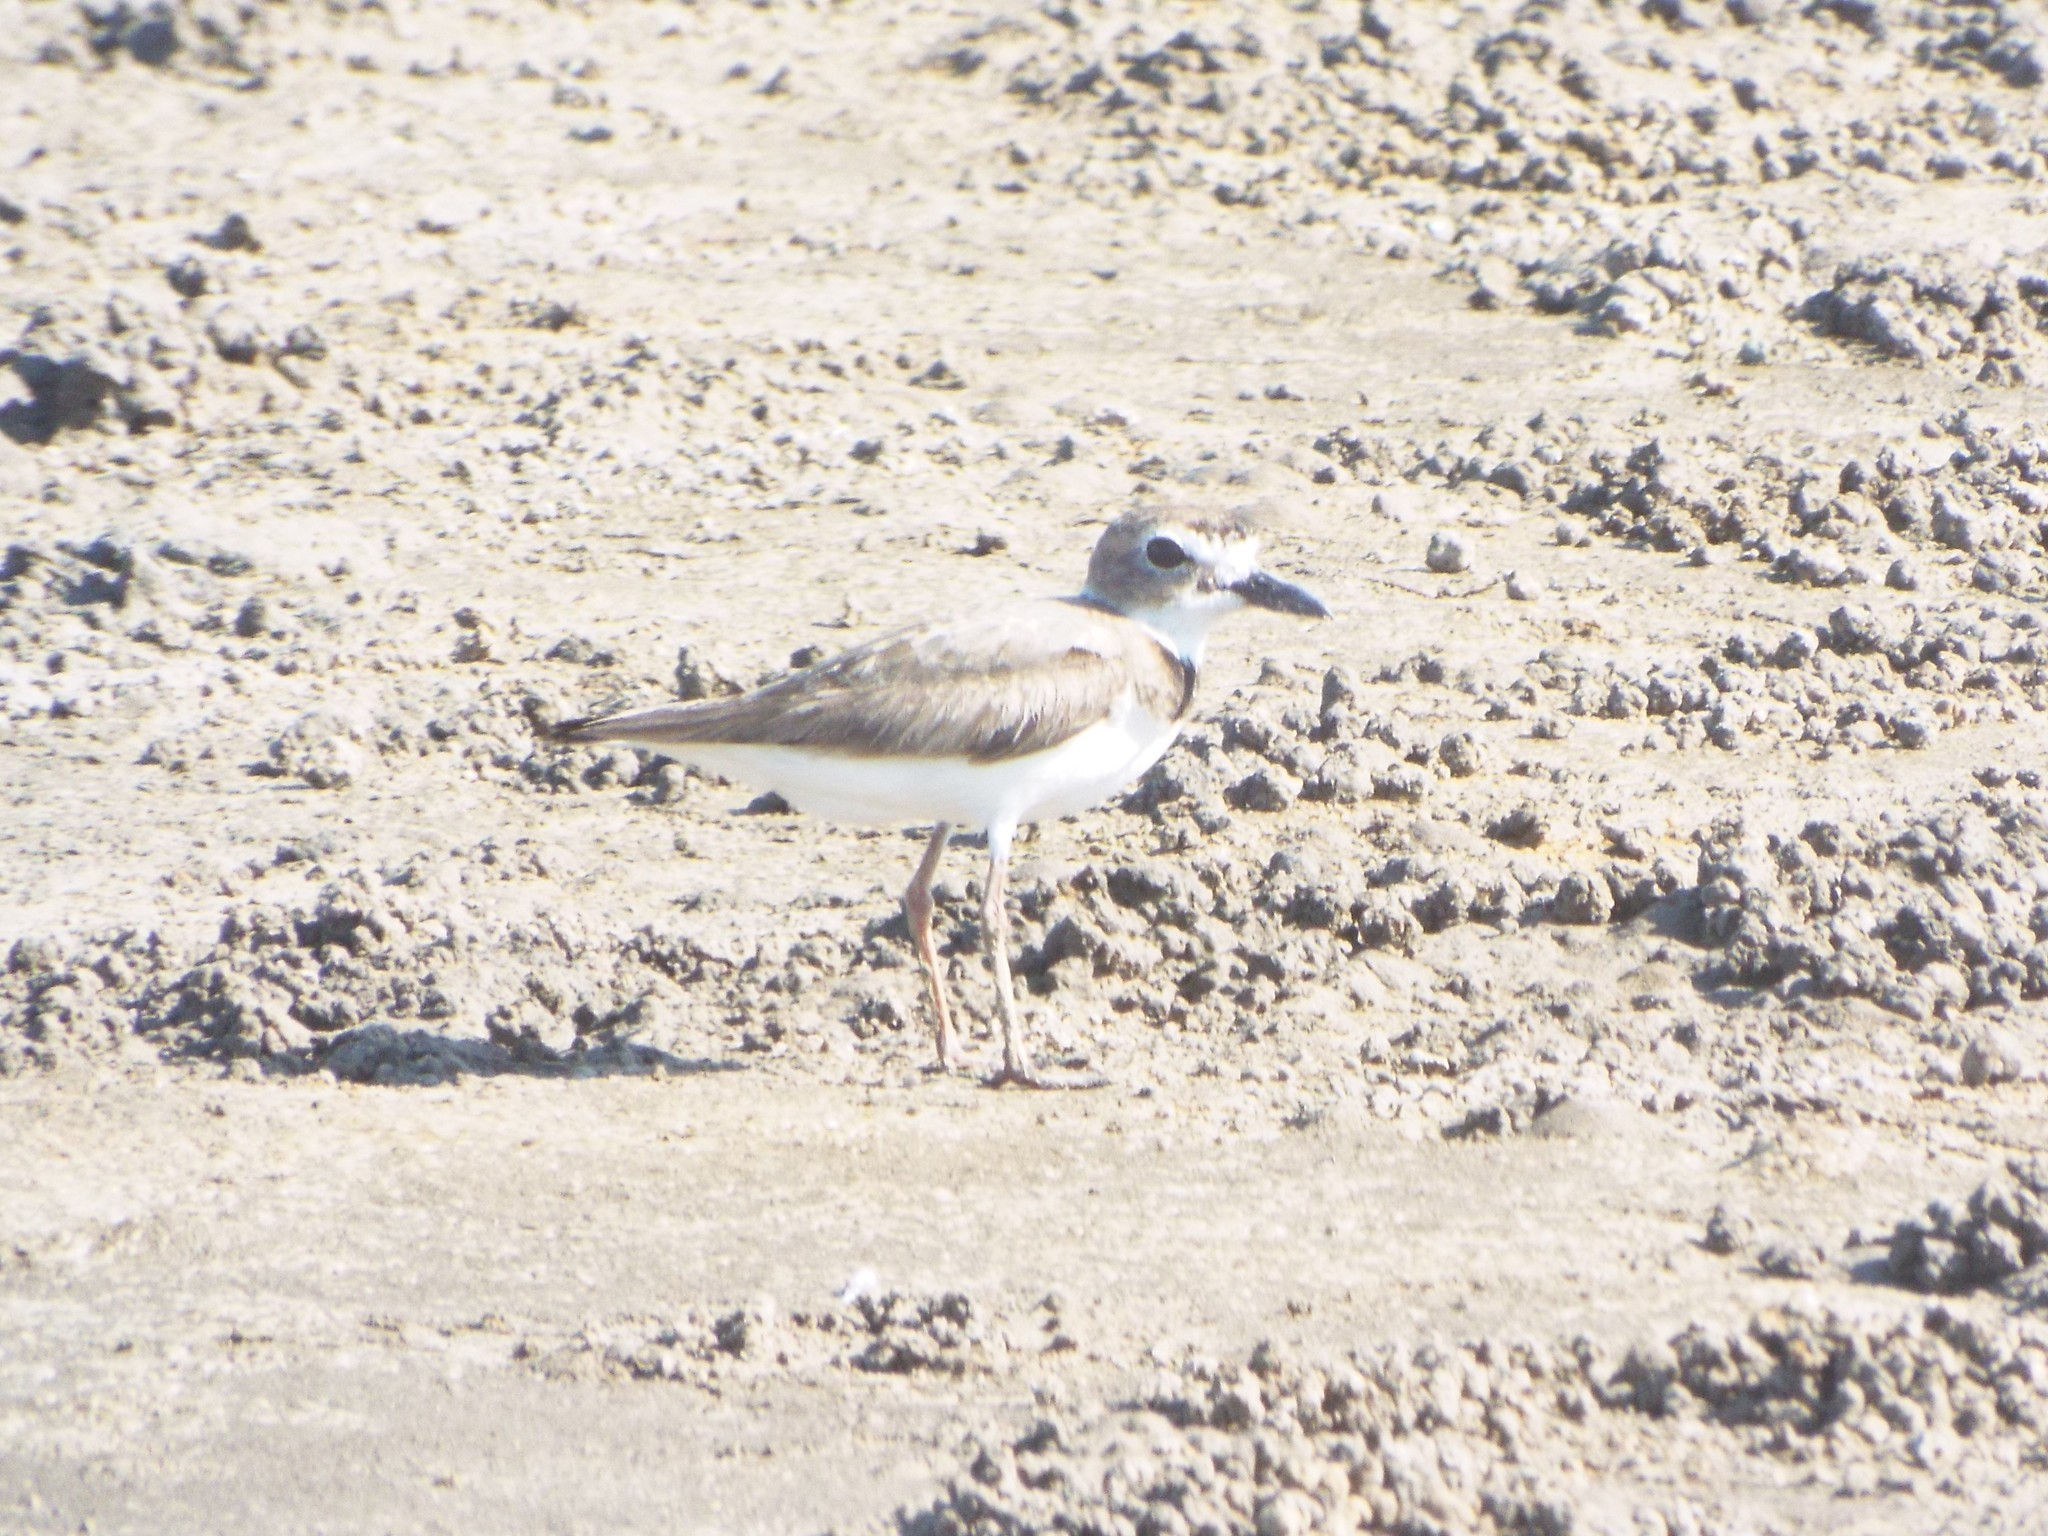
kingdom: Animalia
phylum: Chordata
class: Aves
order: Charadriiformes
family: Charadriidae
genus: Anarhynchus
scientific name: Anarhynchus
